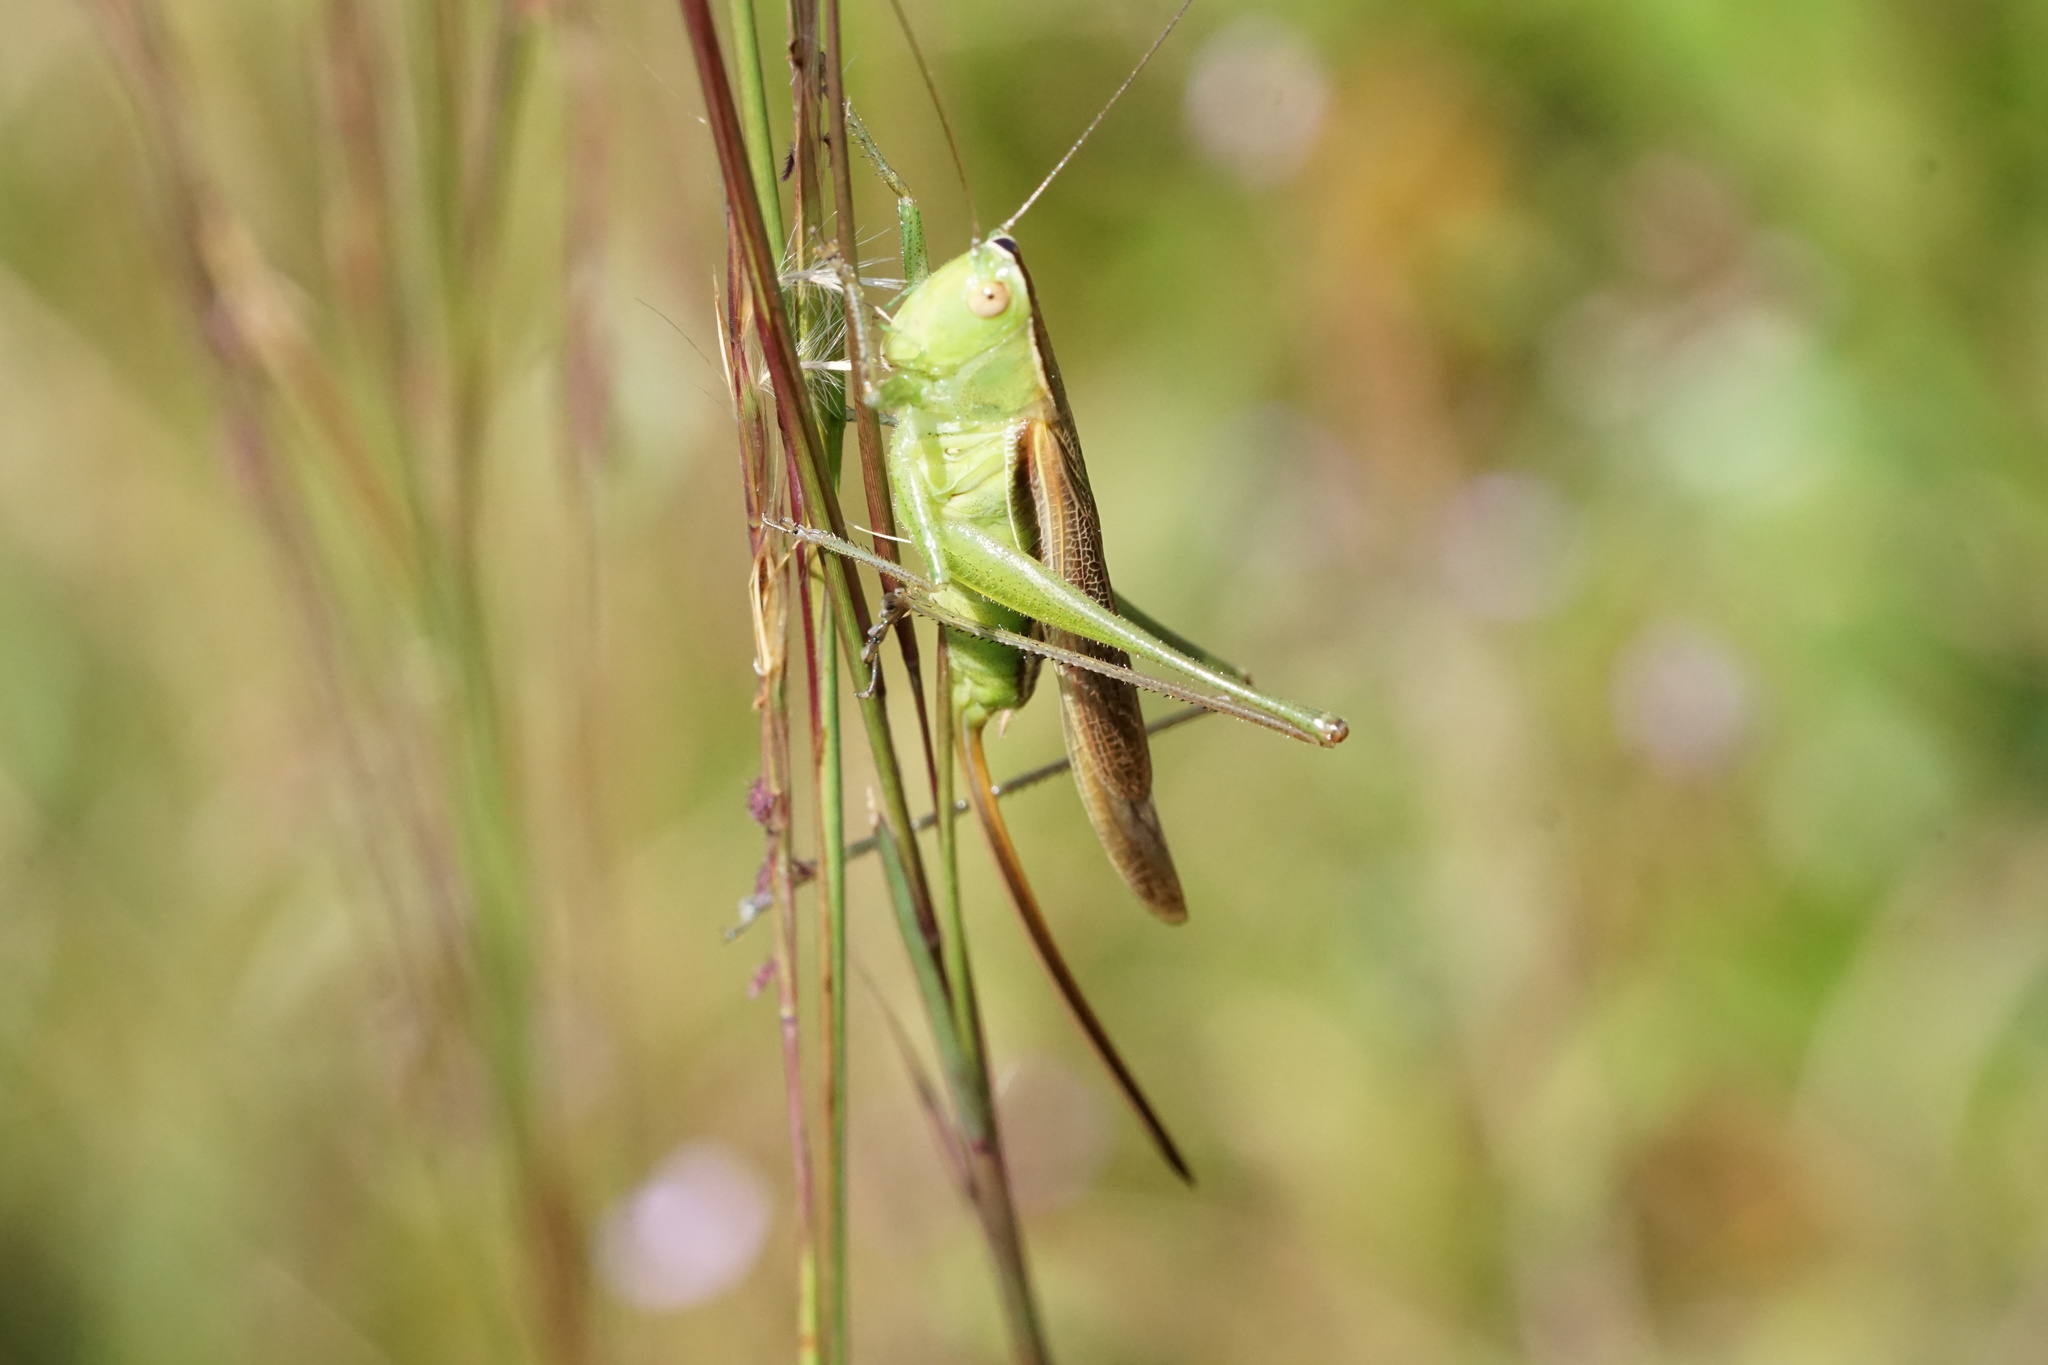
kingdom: Animalia
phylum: Arthropoda
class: Insecta
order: Orthoptera
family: Tettigoniidae
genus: Conocephalus
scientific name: Conocephalus strictus
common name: Straight-lanced katydid
